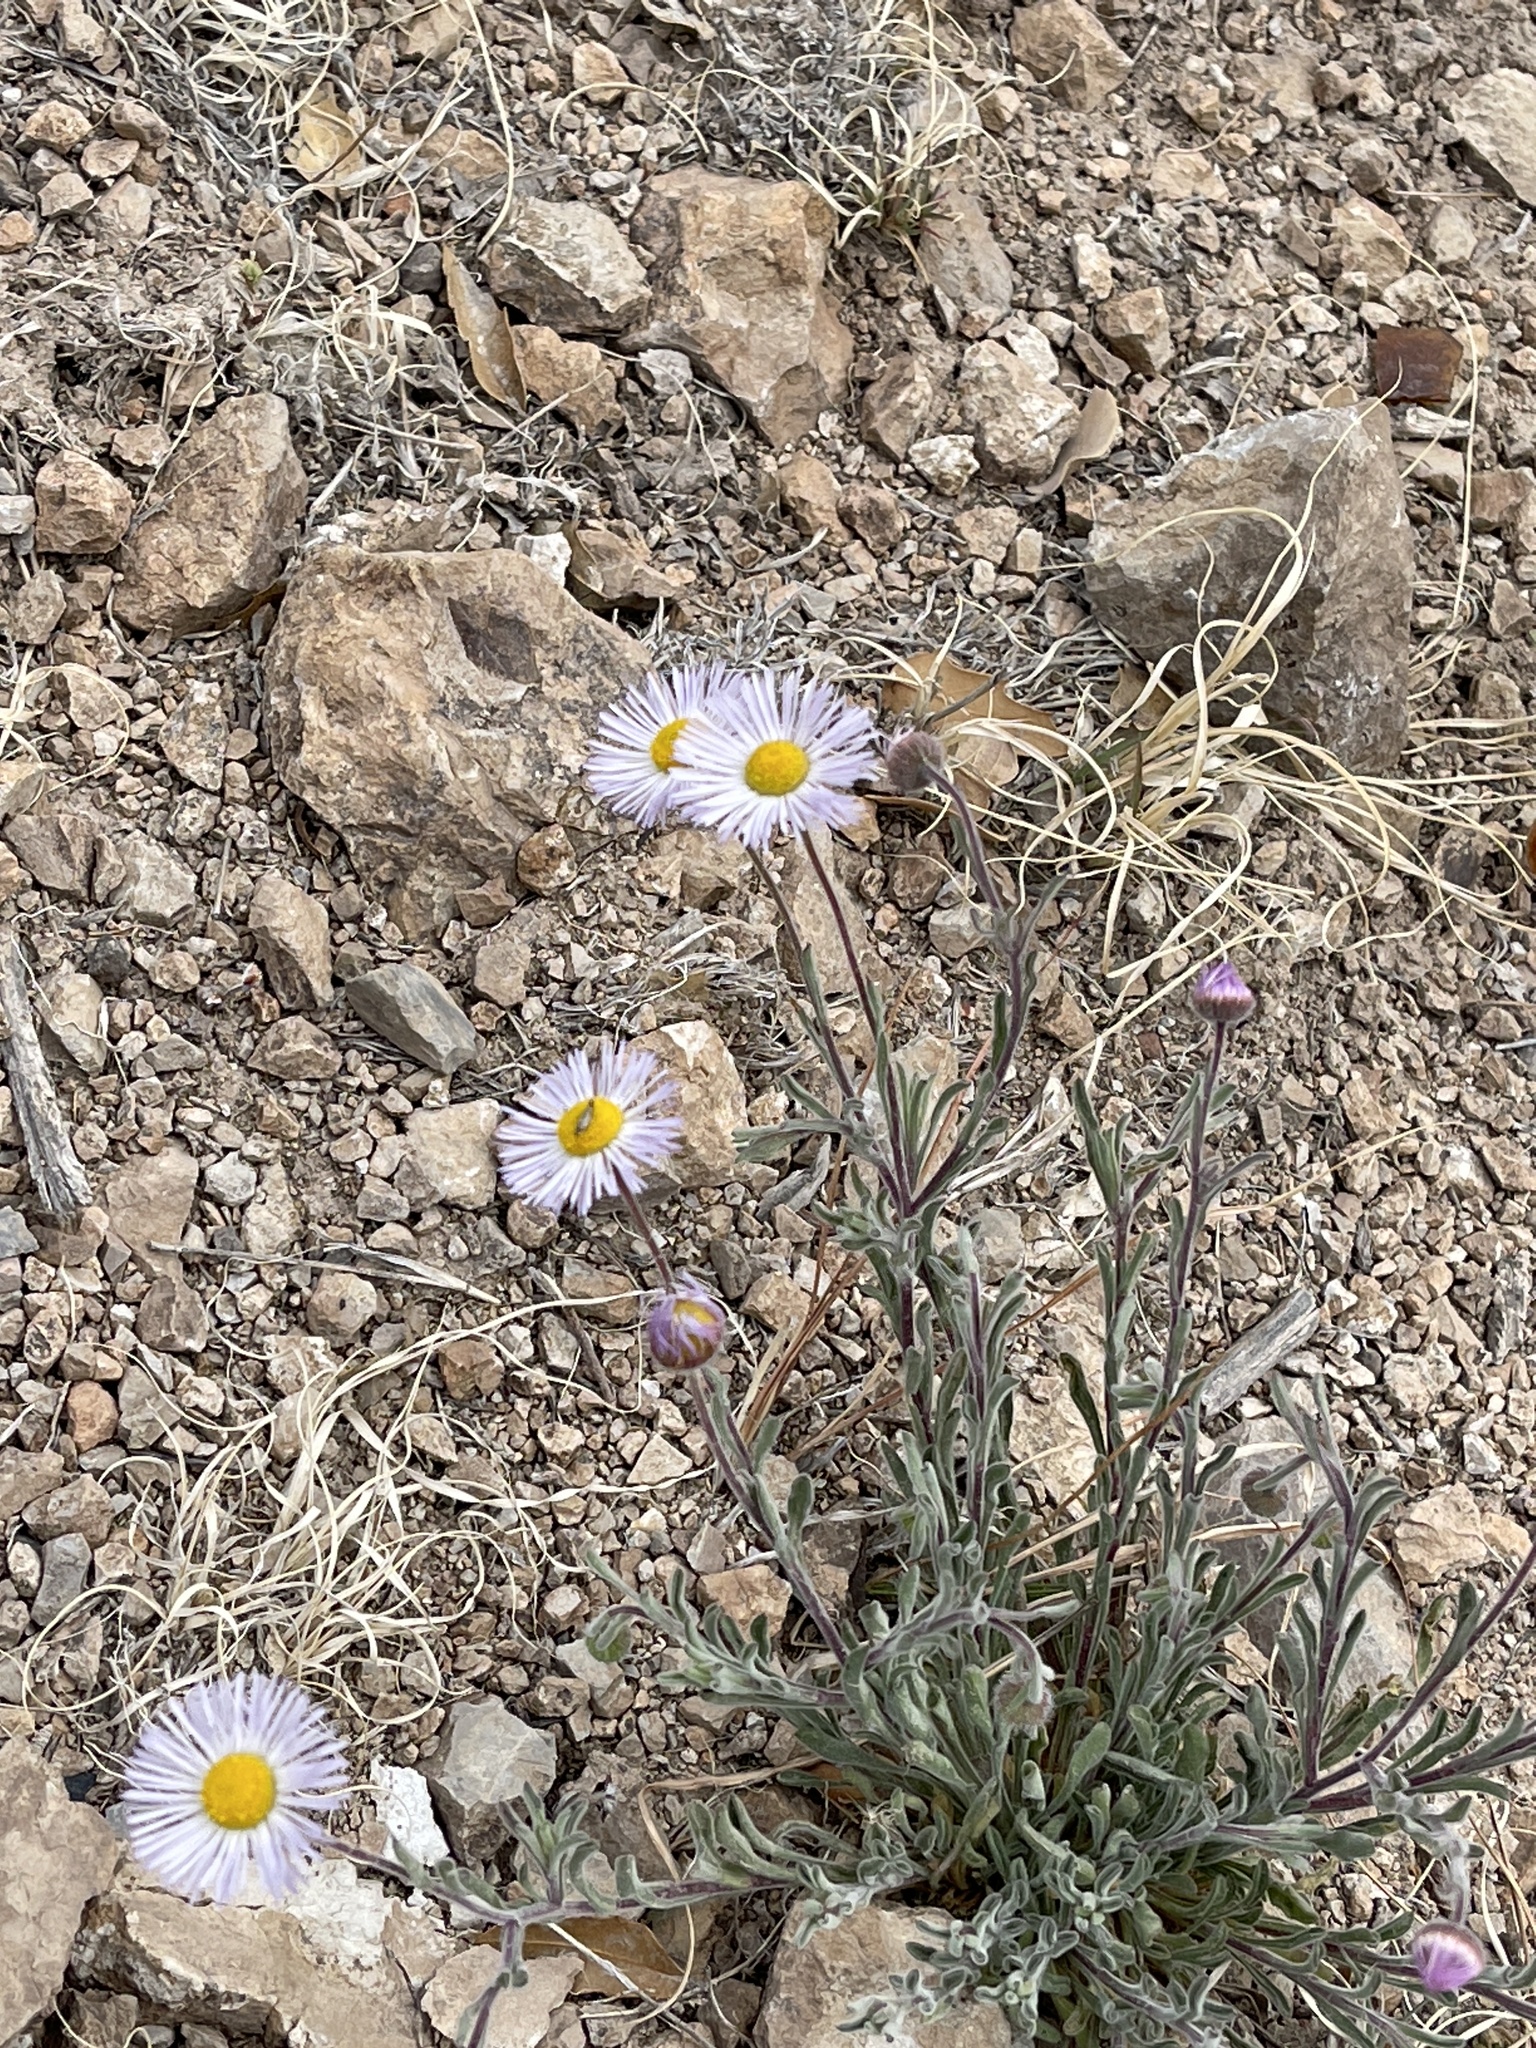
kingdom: Plantae
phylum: Tracheophyta
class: Magnoliopsida
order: Asterales
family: Asteraceae
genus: Erigeron
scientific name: Erigeron divergens
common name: Diffuse fleabane
